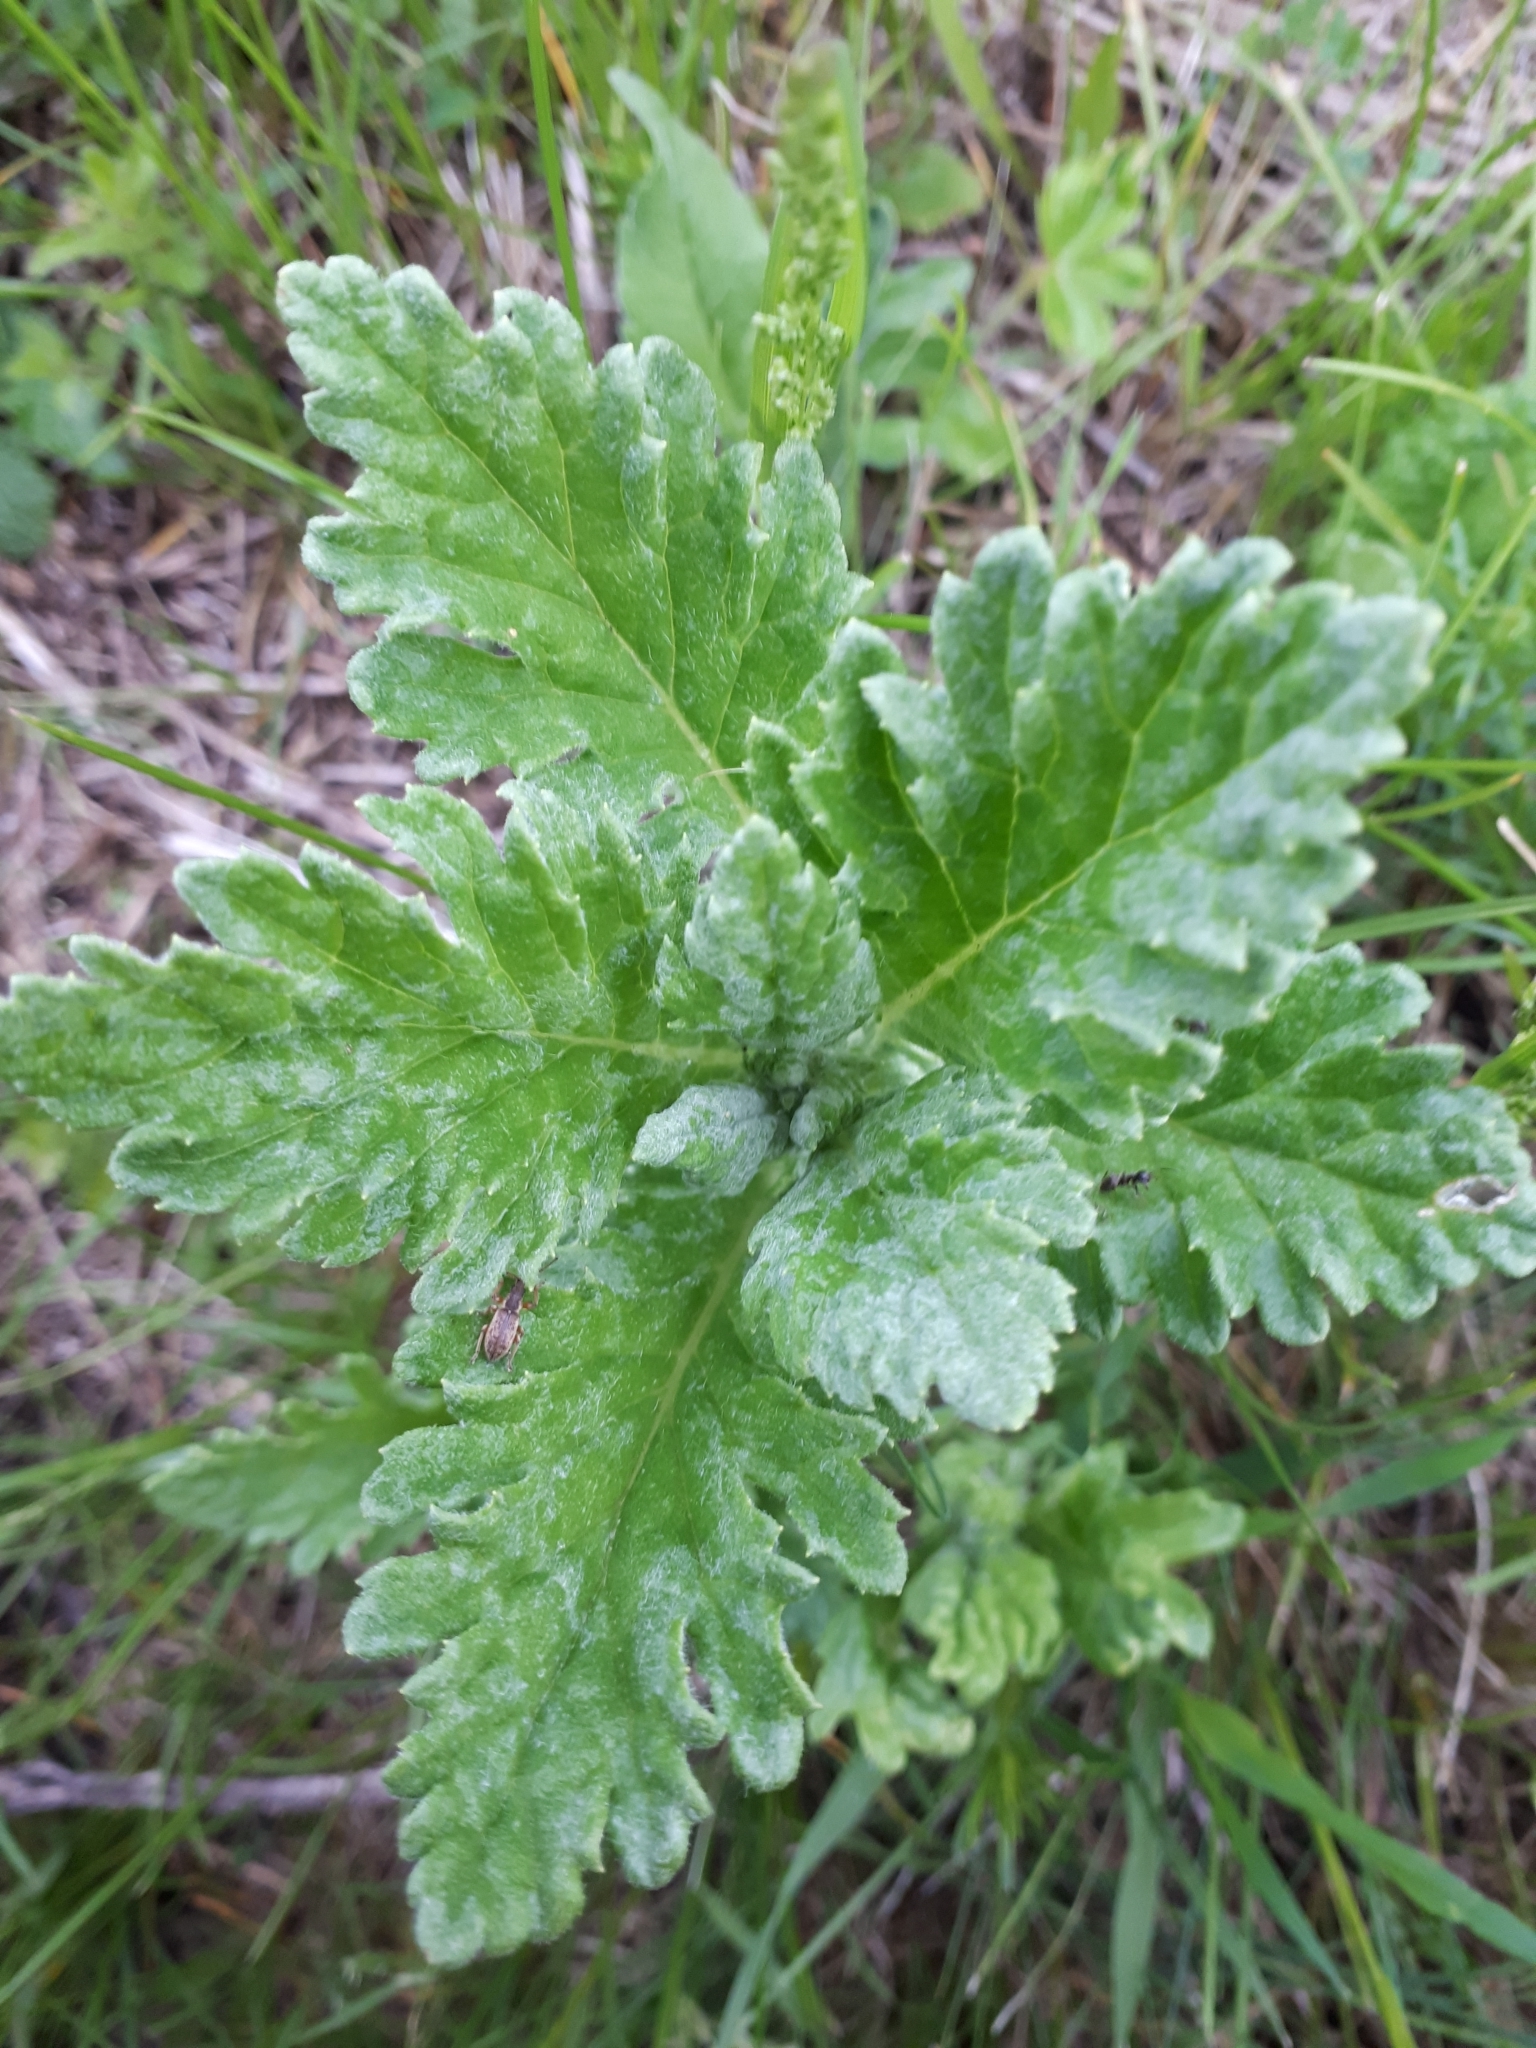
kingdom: Plantae
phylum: Tracheophyta
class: Magnoliopsida
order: Asterales
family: Asteraceae
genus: Jacobaea
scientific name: Jacobaea erucifolia
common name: Hoary ragwort
